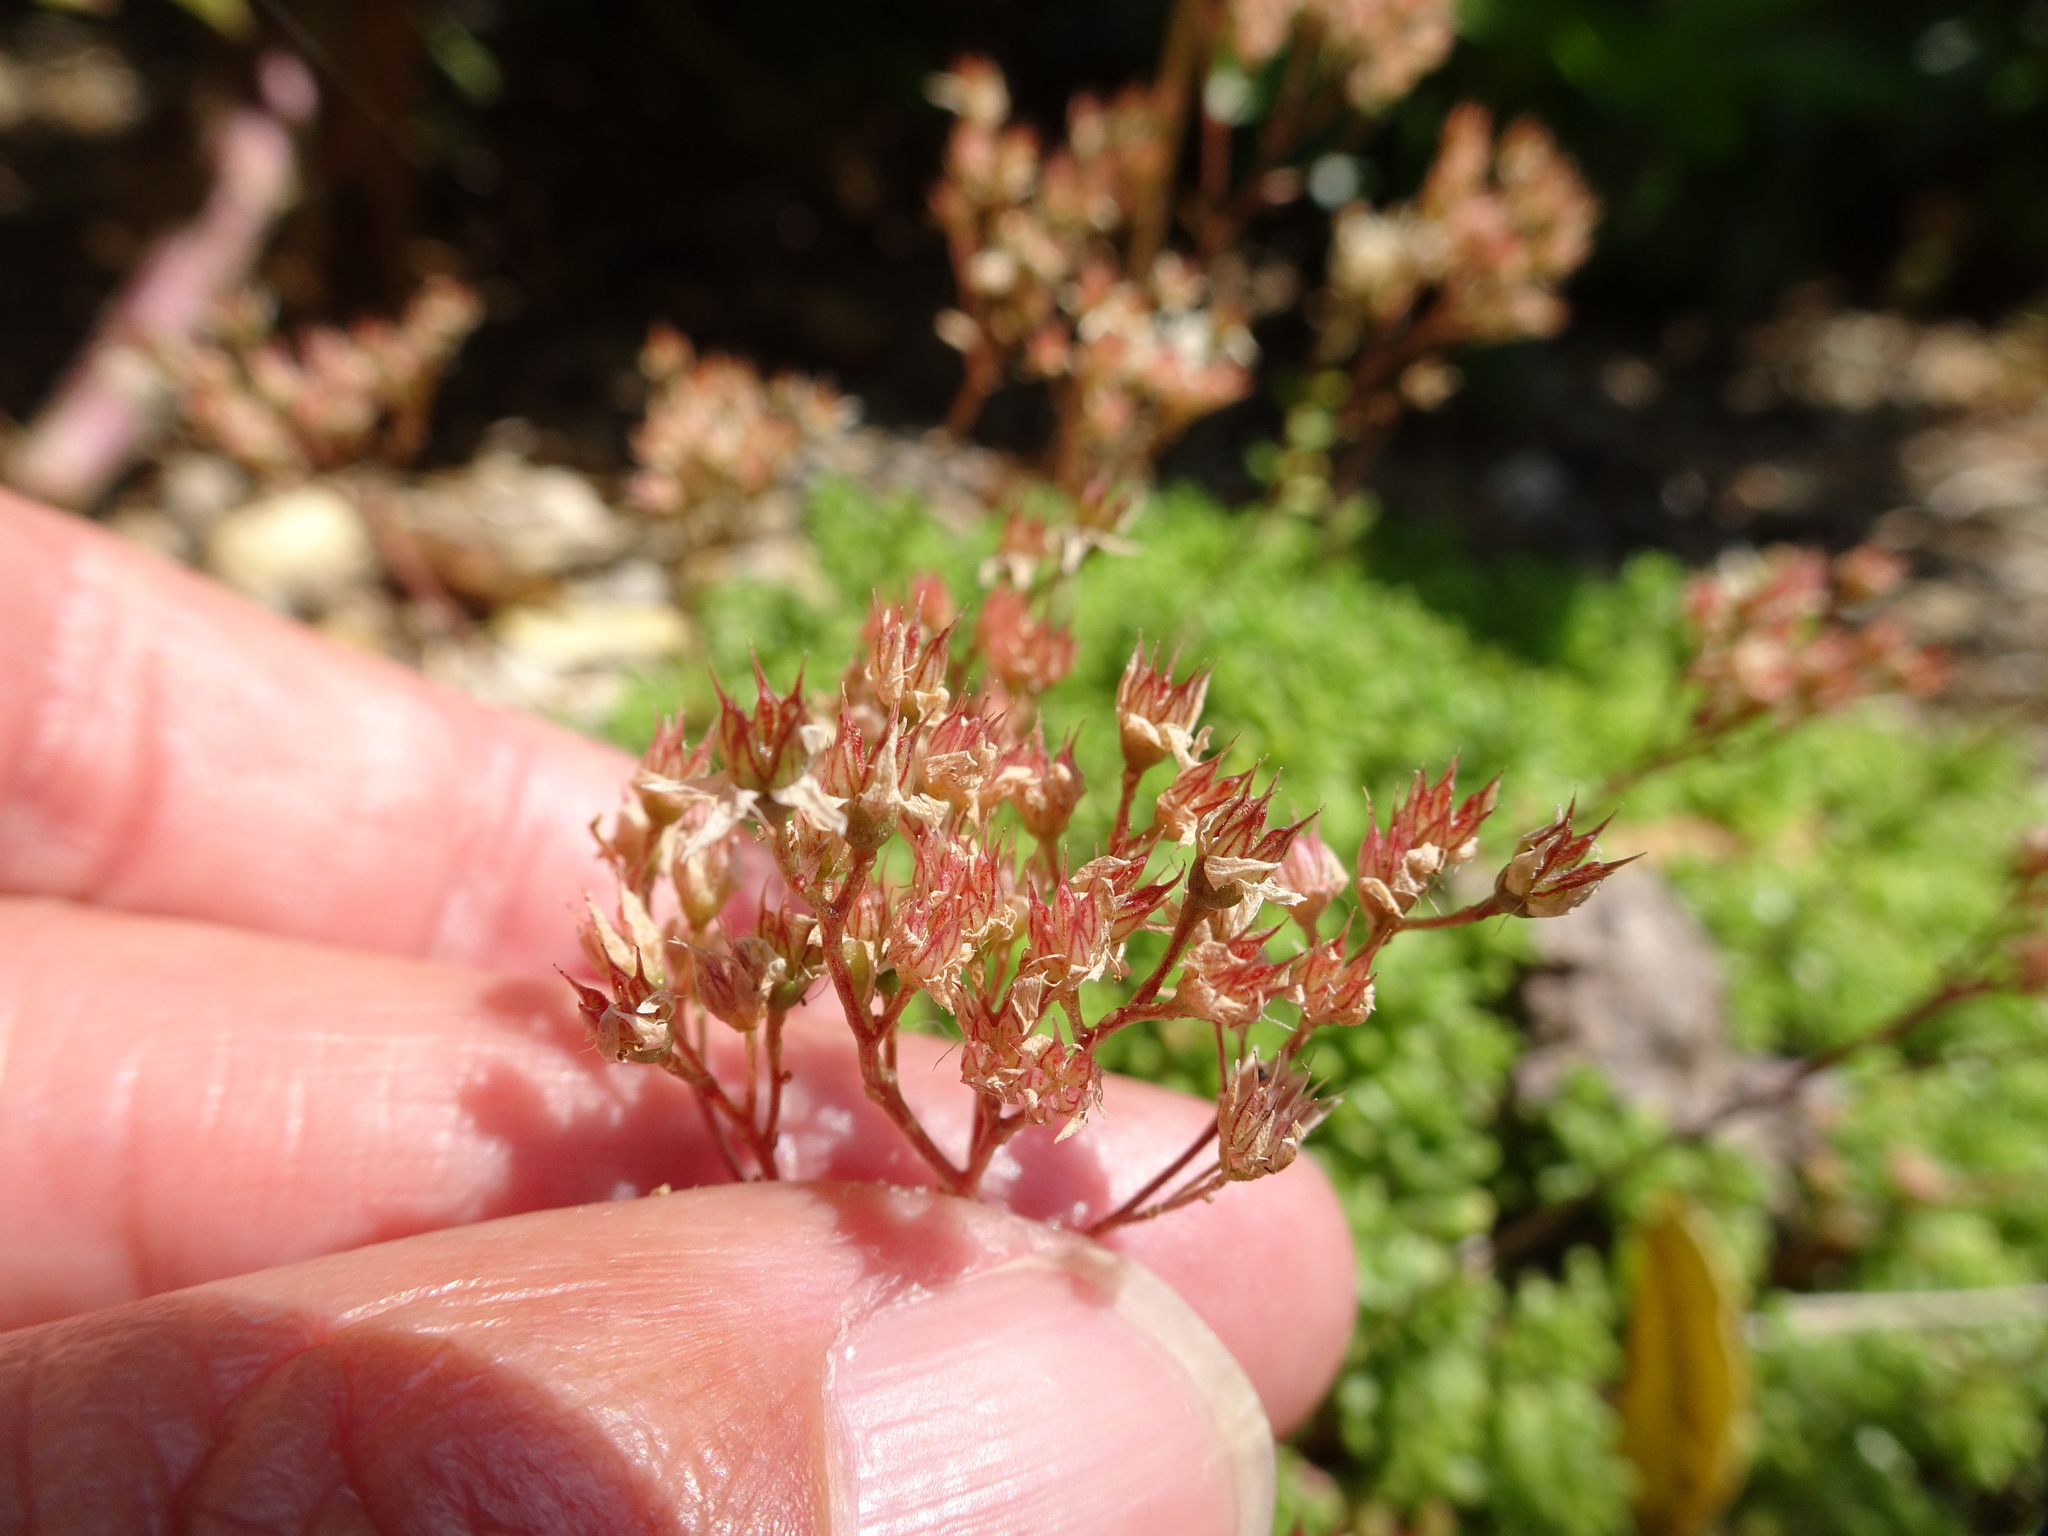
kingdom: Plantae
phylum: Tracheophyta
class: Magnoliopsida
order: Saxifragales
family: Crassulaceae
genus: Sedum
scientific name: Sedum album
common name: White stonecrop
